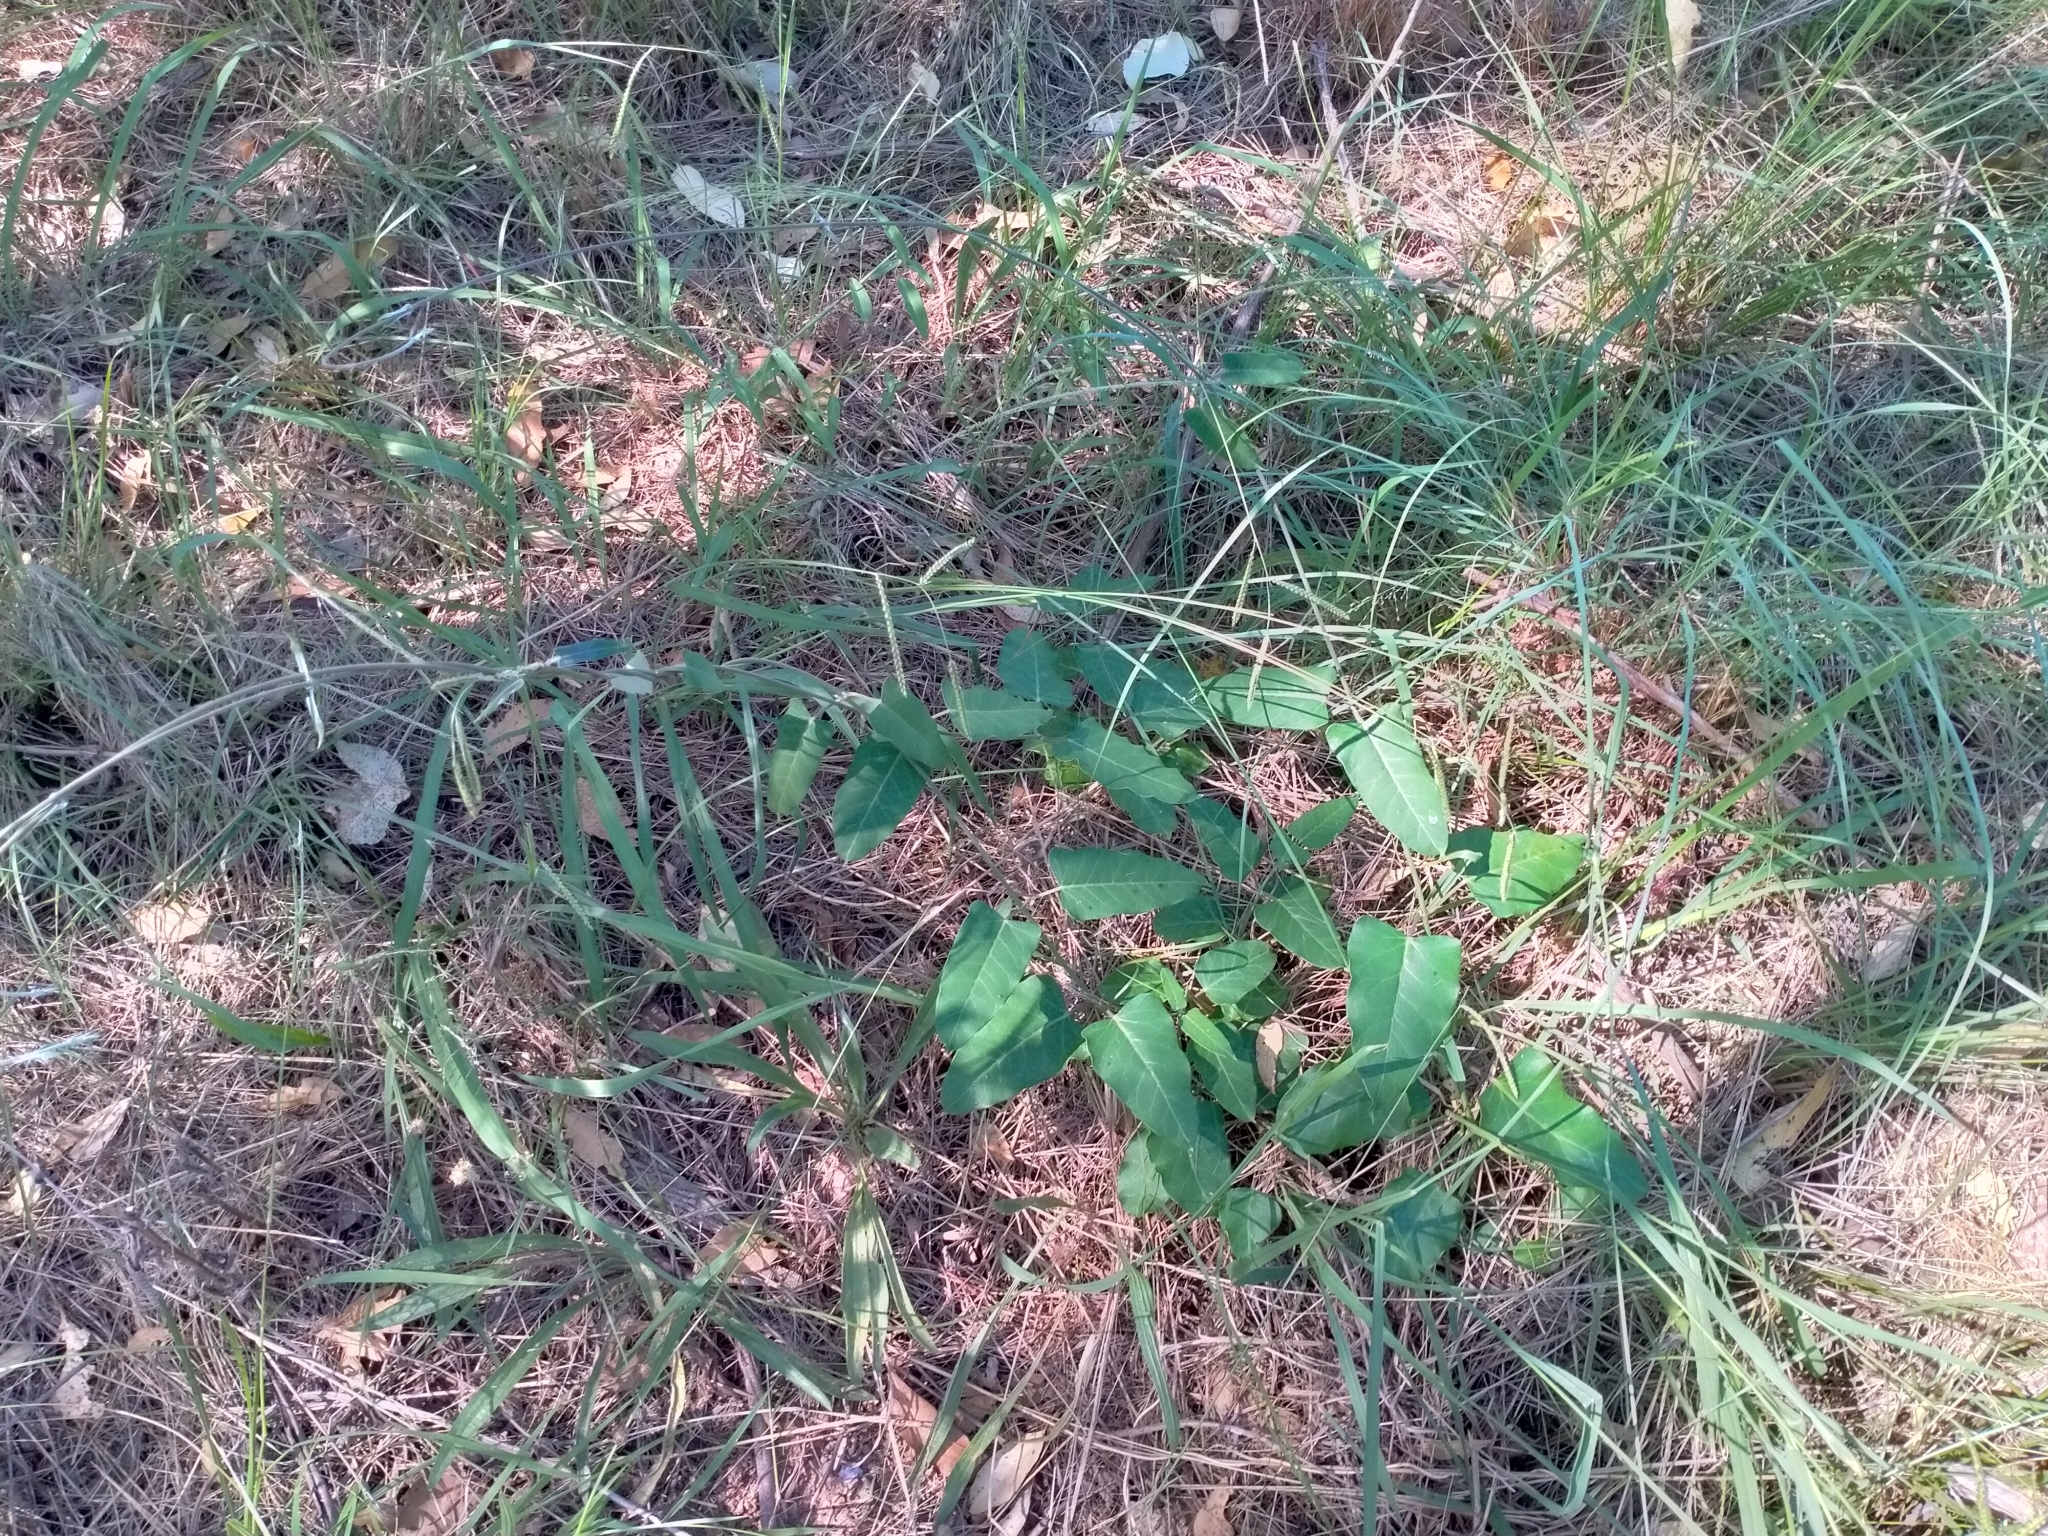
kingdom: Plantae
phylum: Tracheophyta
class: Magnoliopsida
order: Gentianales
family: Apocynaceae
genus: Araujia
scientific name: Araujia sericifera
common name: White bladderflower
